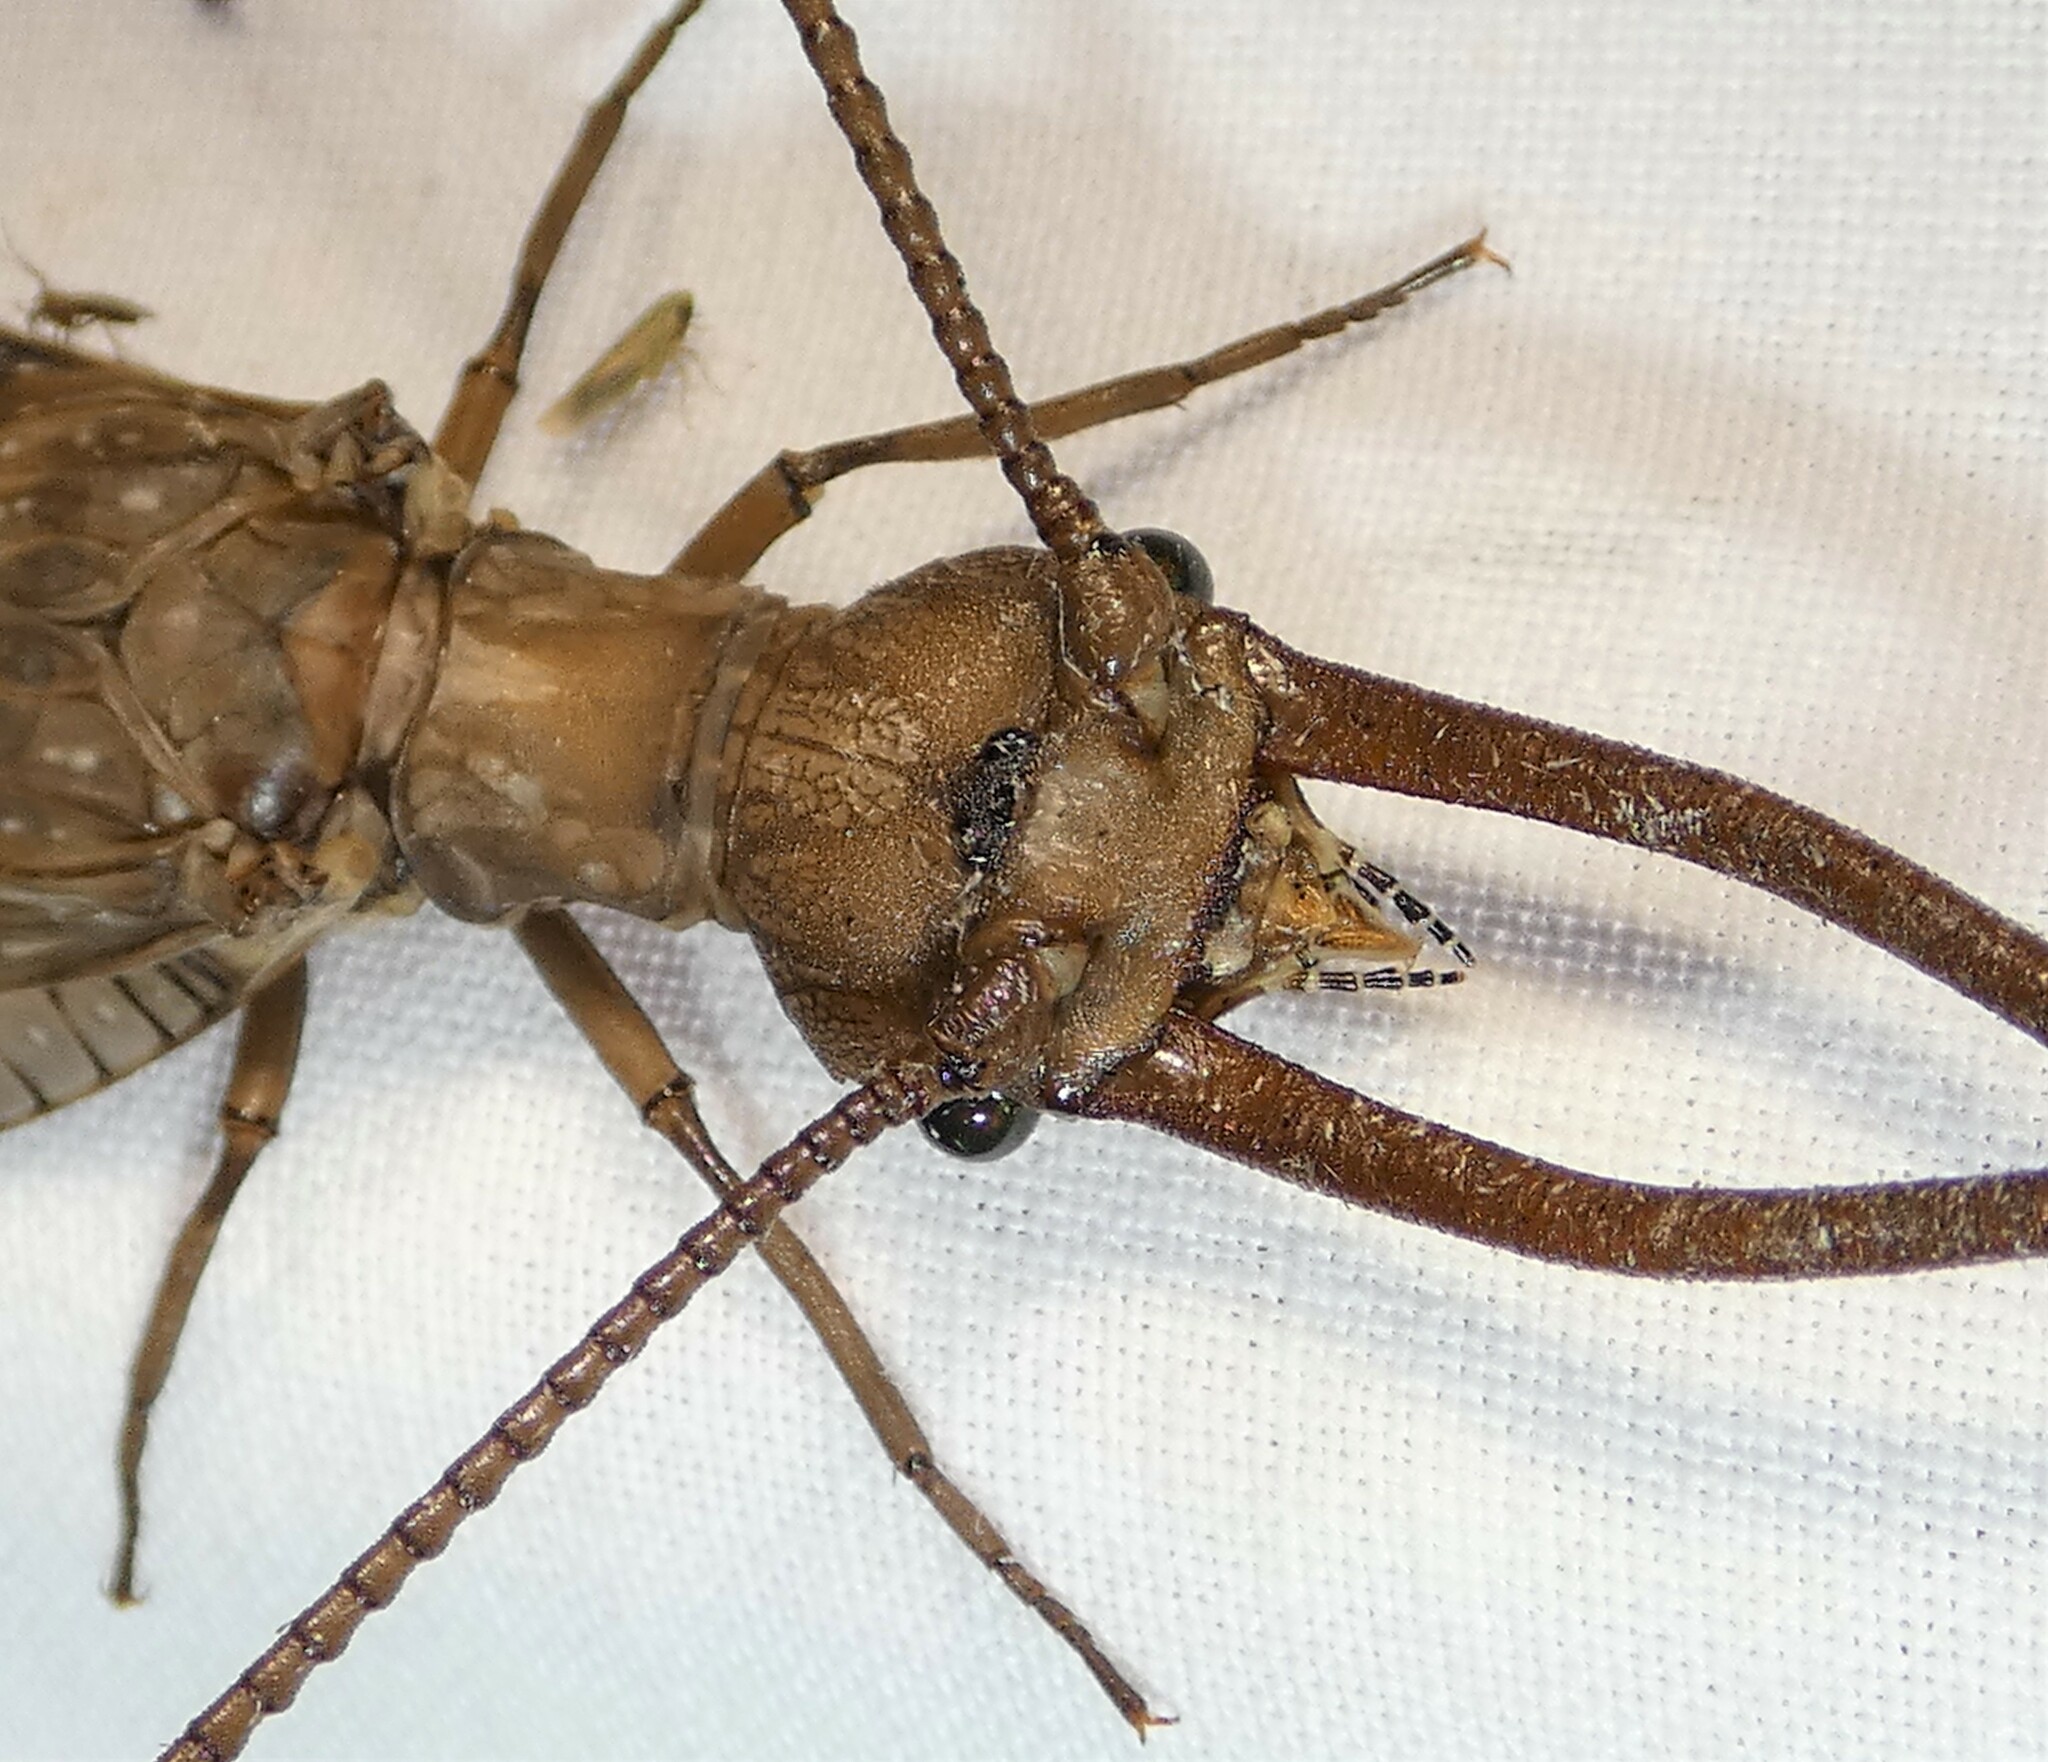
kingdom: Animalia
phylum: Arthropoda
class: Insecta
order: Megaloptera
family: Corydalidae
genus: Corydalus
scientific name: Corydalus cornutus
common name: Dobsonfly
